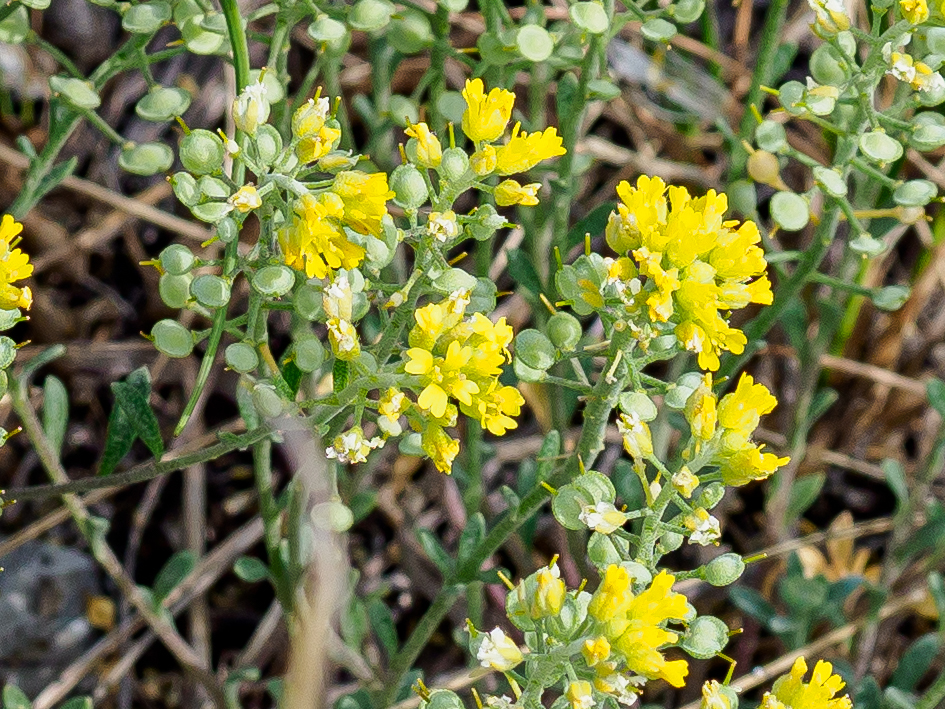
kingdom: Plantae
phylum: Tracheophyta
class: Magnoliopsida
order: Brassicales
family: Brassicaceae
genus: Alyssum
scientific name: Alyssum gmelinii
